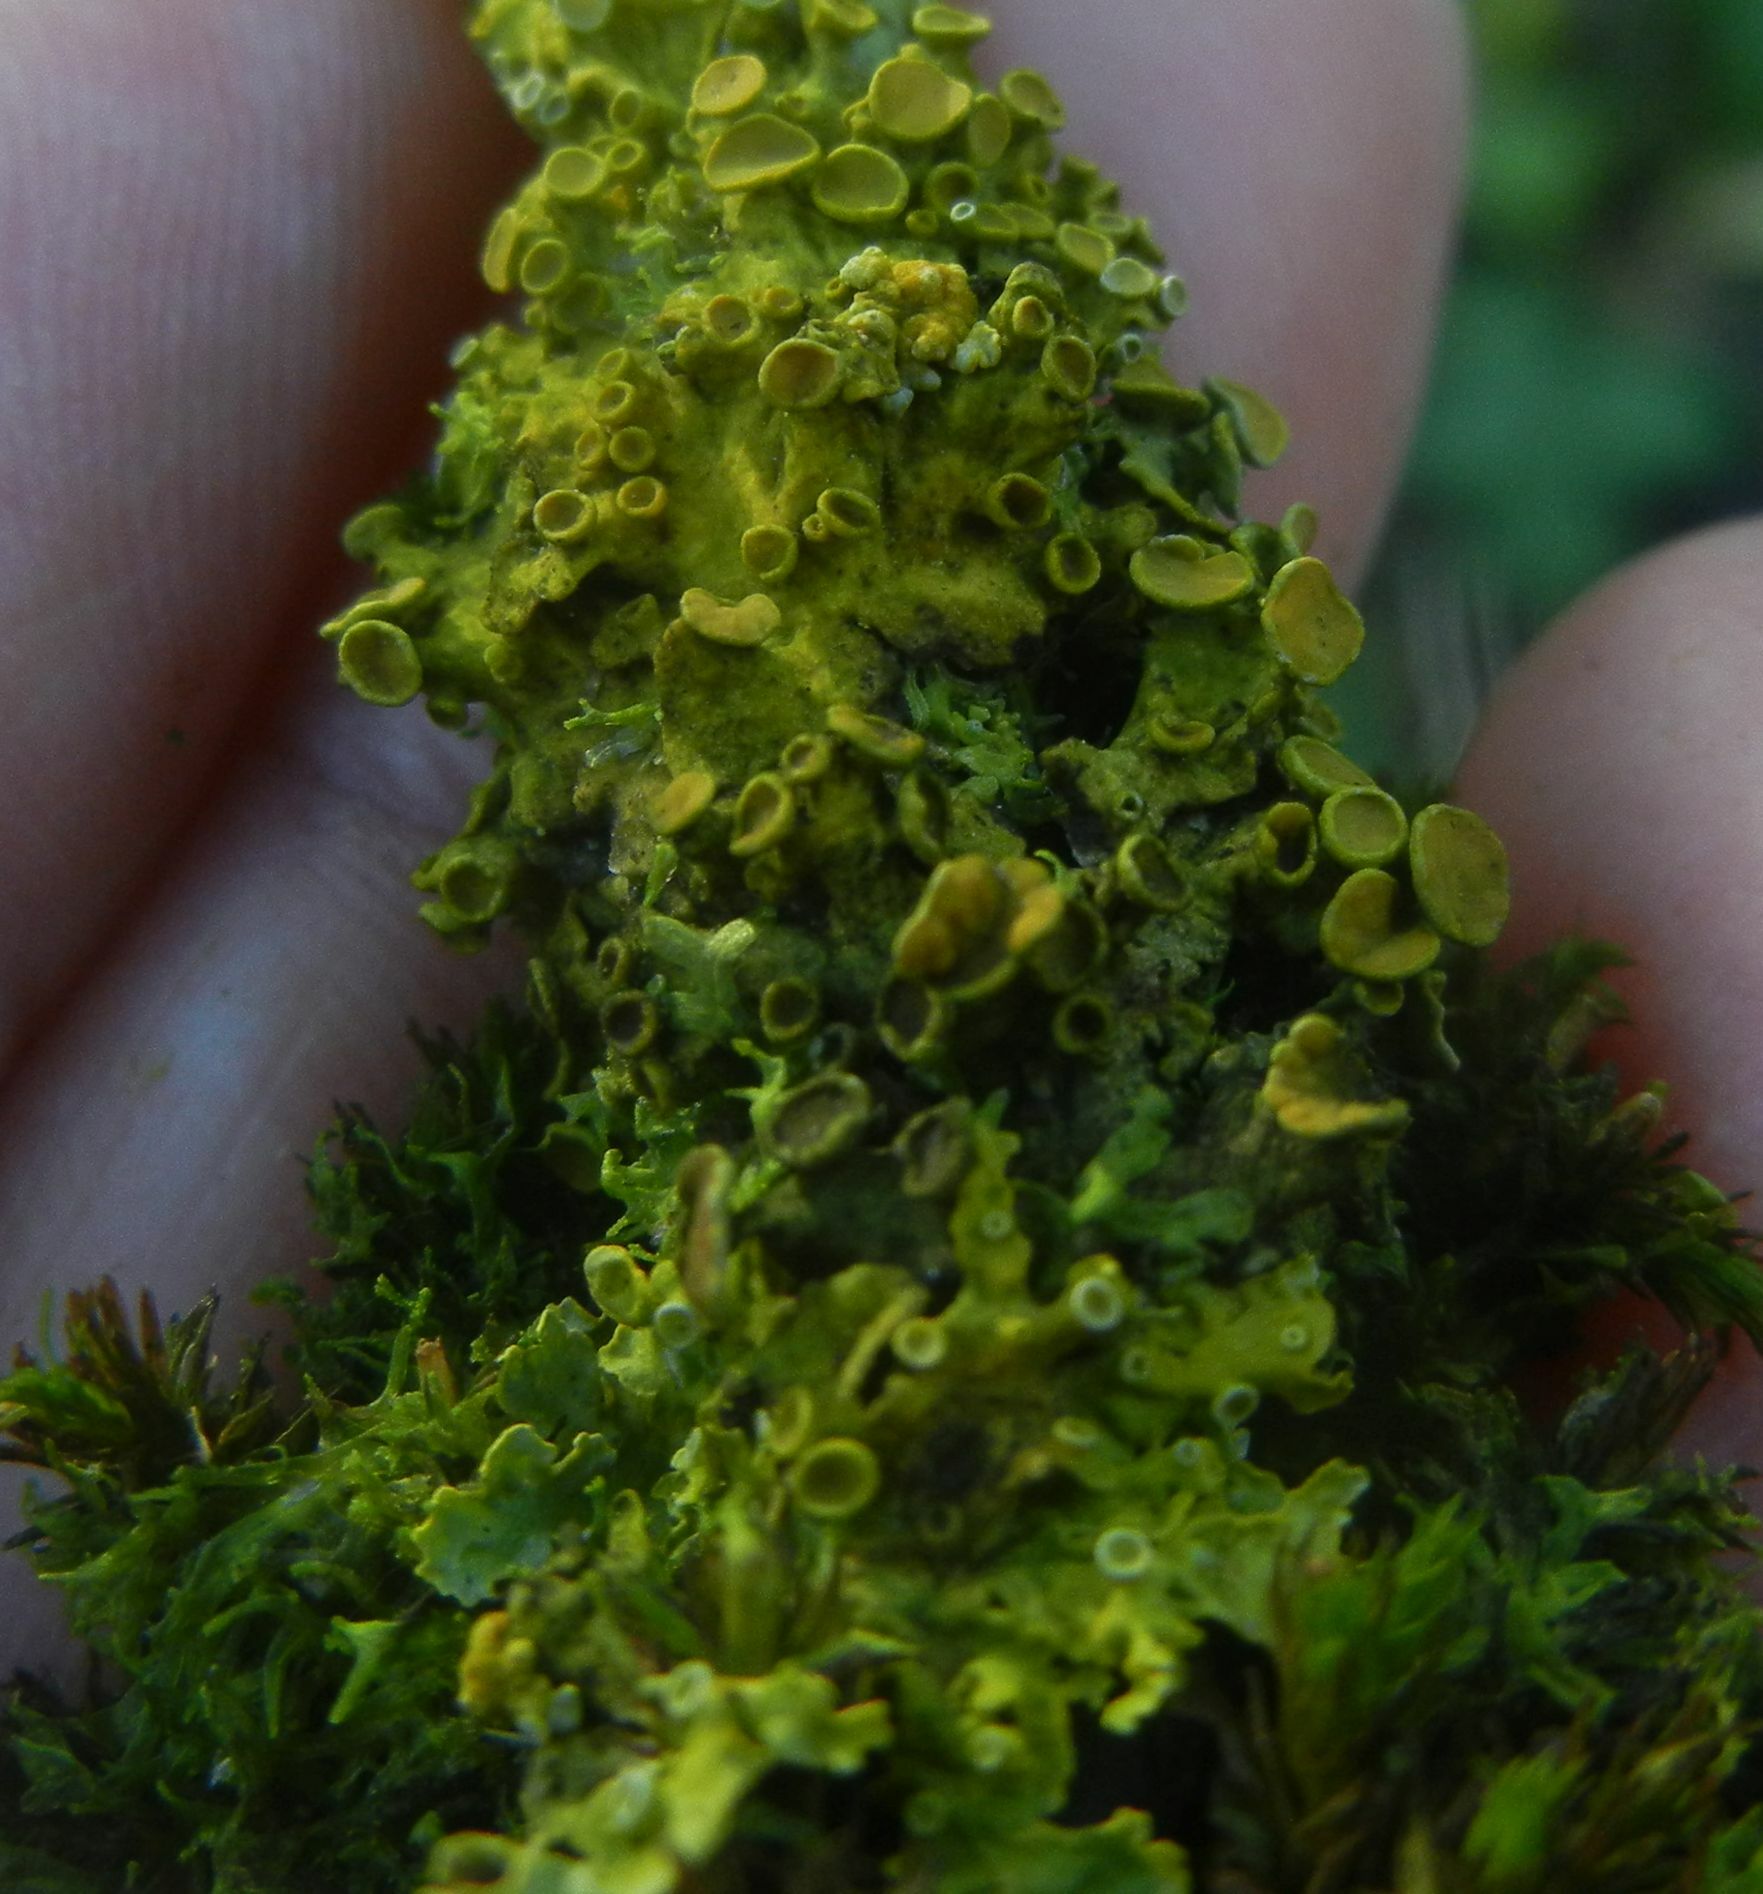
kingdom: Fungi
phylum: Ascomycota
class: Lecanoromycetes
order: Teloschistales
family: Teloschistaceae
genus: Xanthoria
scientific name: Xanthoria parietina
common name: Common orange lichen
